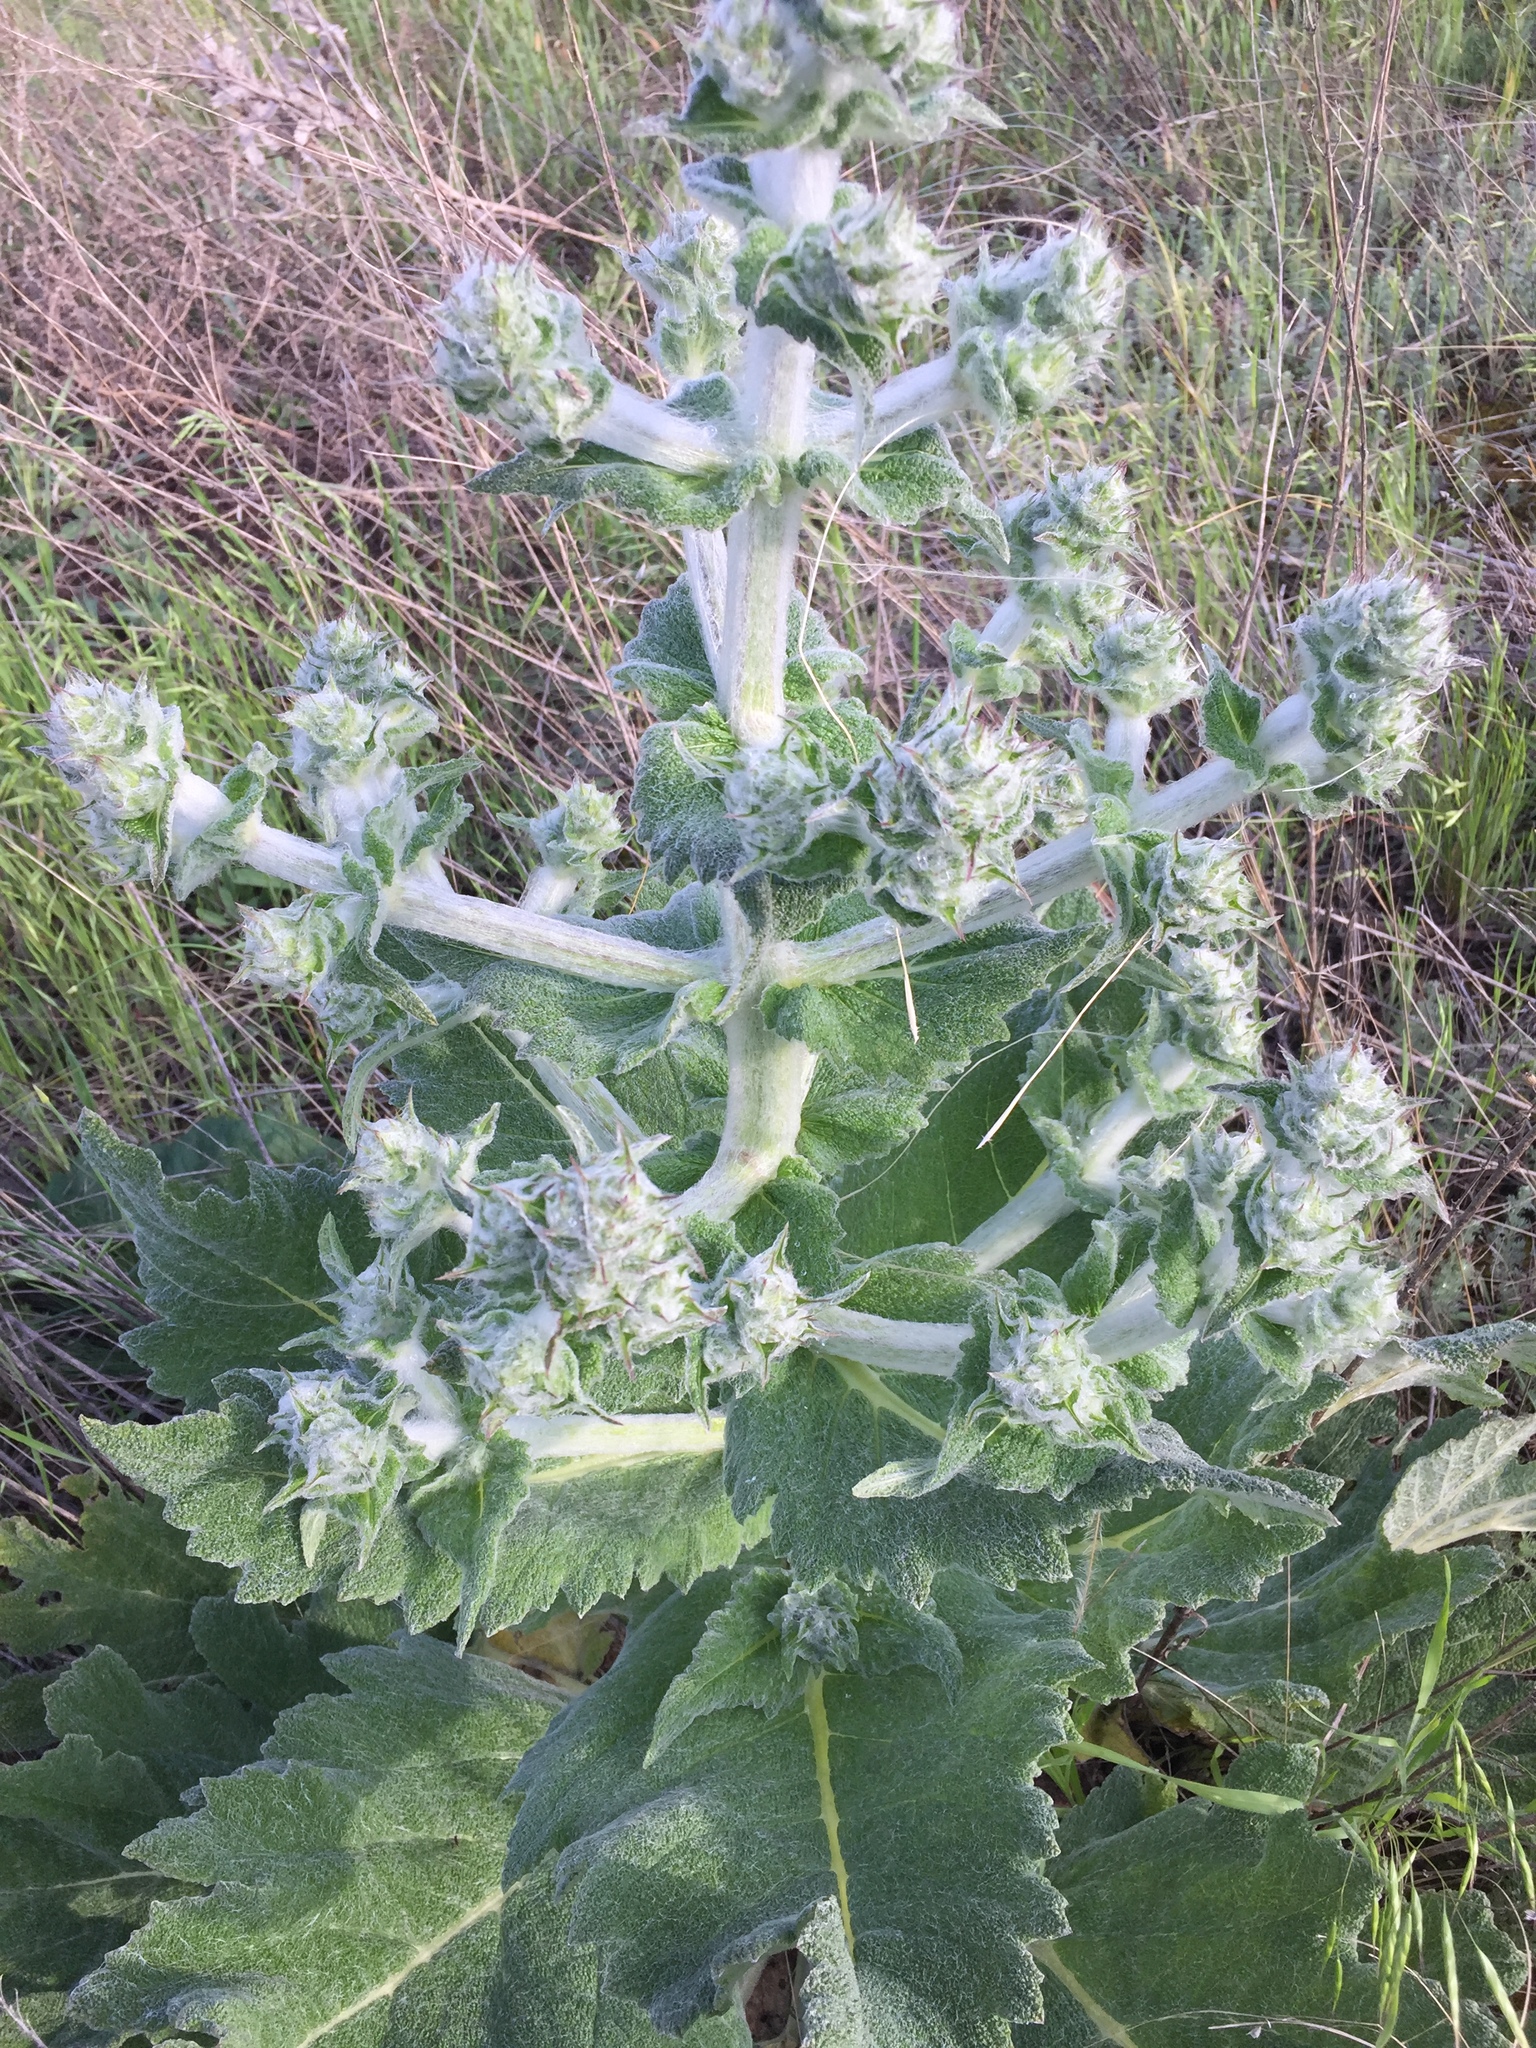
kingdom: Plantae
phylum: Tracheophyta
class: Magnoliopsida
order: Lamiales
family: Lamiaceae
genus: Salvia
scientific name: Salvia aethiopis
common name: Mediterranean sage
